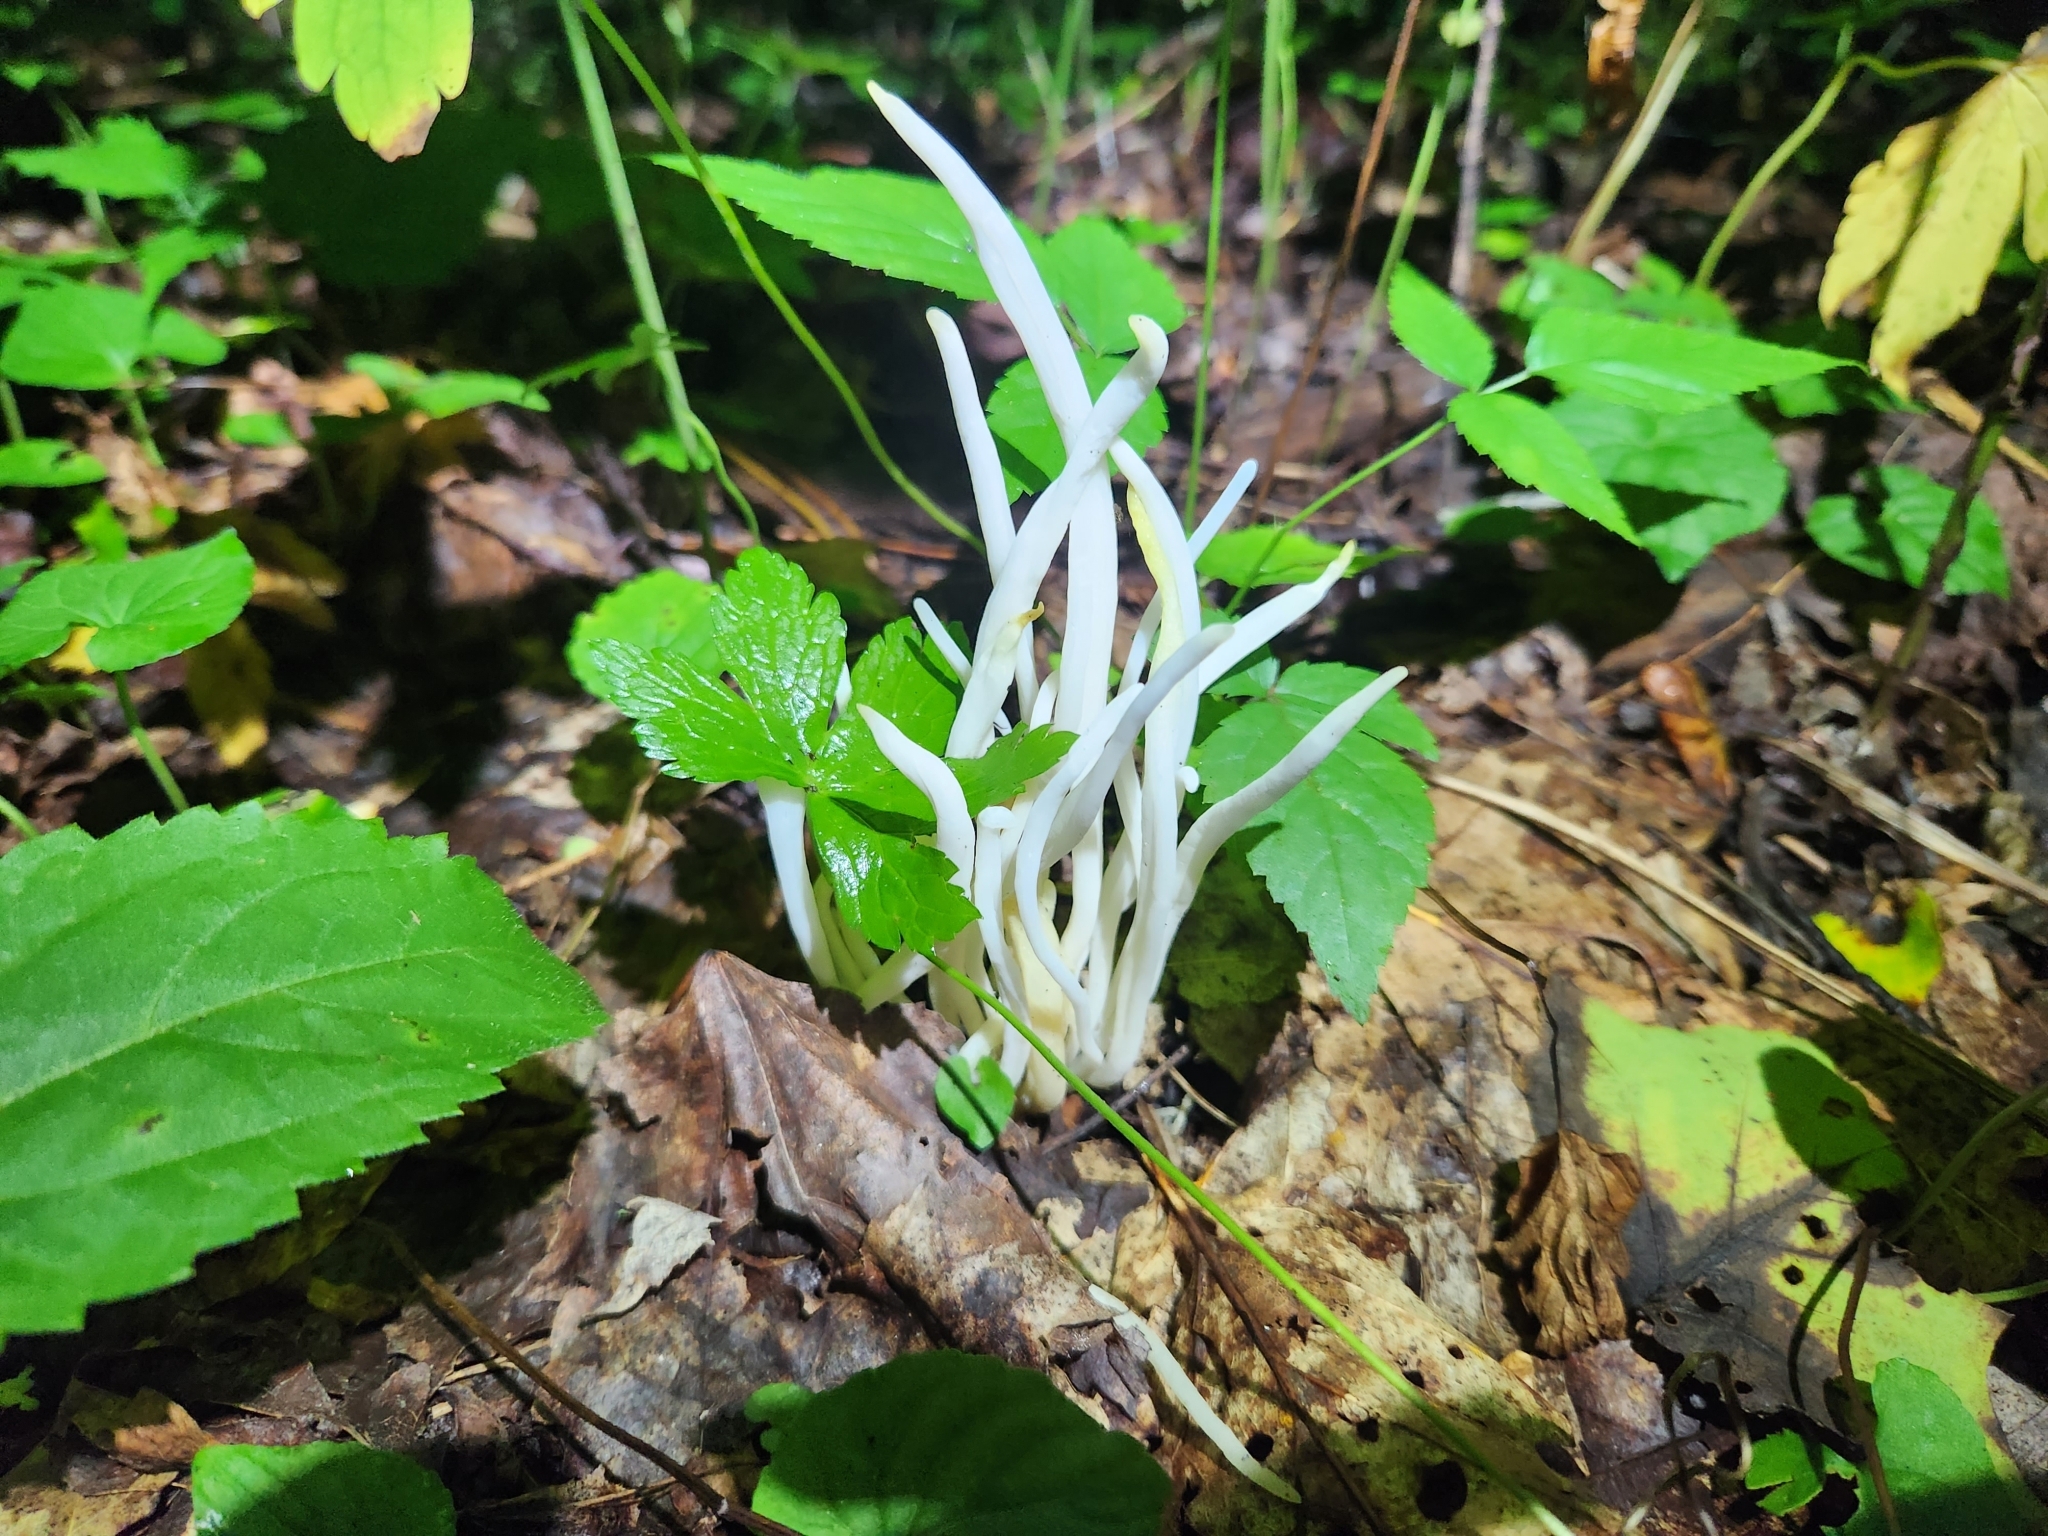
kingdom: Fungi
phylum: Basidiomycota
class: Agaricomycetes
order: Agaricales
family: Clavariaceae
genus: Clavaria
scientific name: Clavaria fragilis
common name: White spindles
